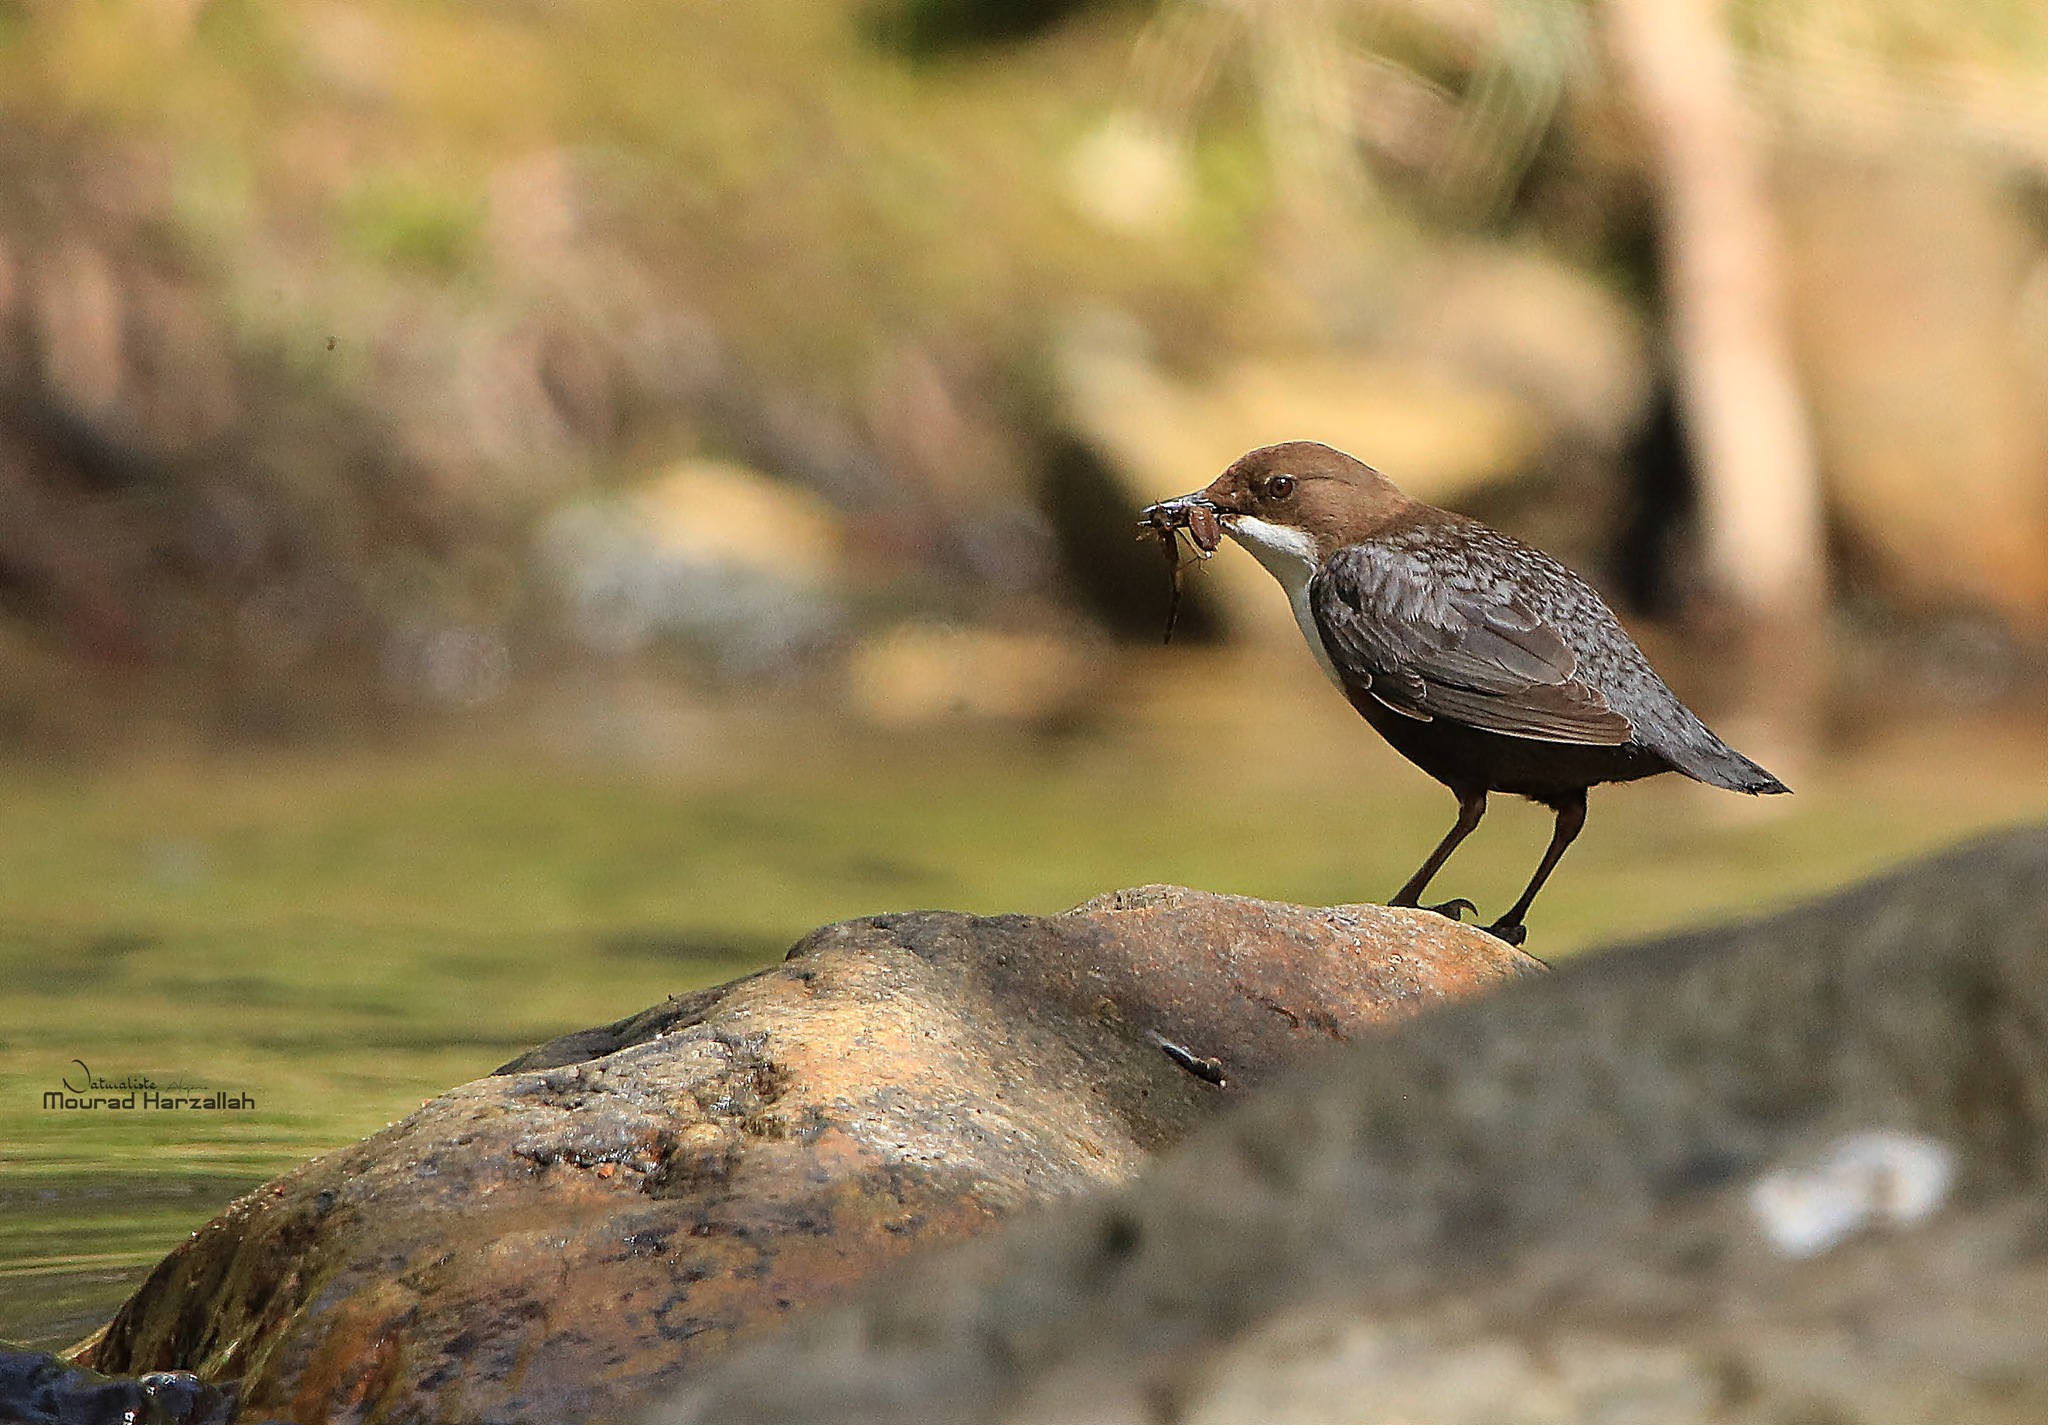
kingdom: Animalia
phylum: Chordata
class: Aves
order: Passeriformes
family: Cinclidae
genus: Cinclus
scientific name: Cinclus cinclus
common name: White-throated dipper
